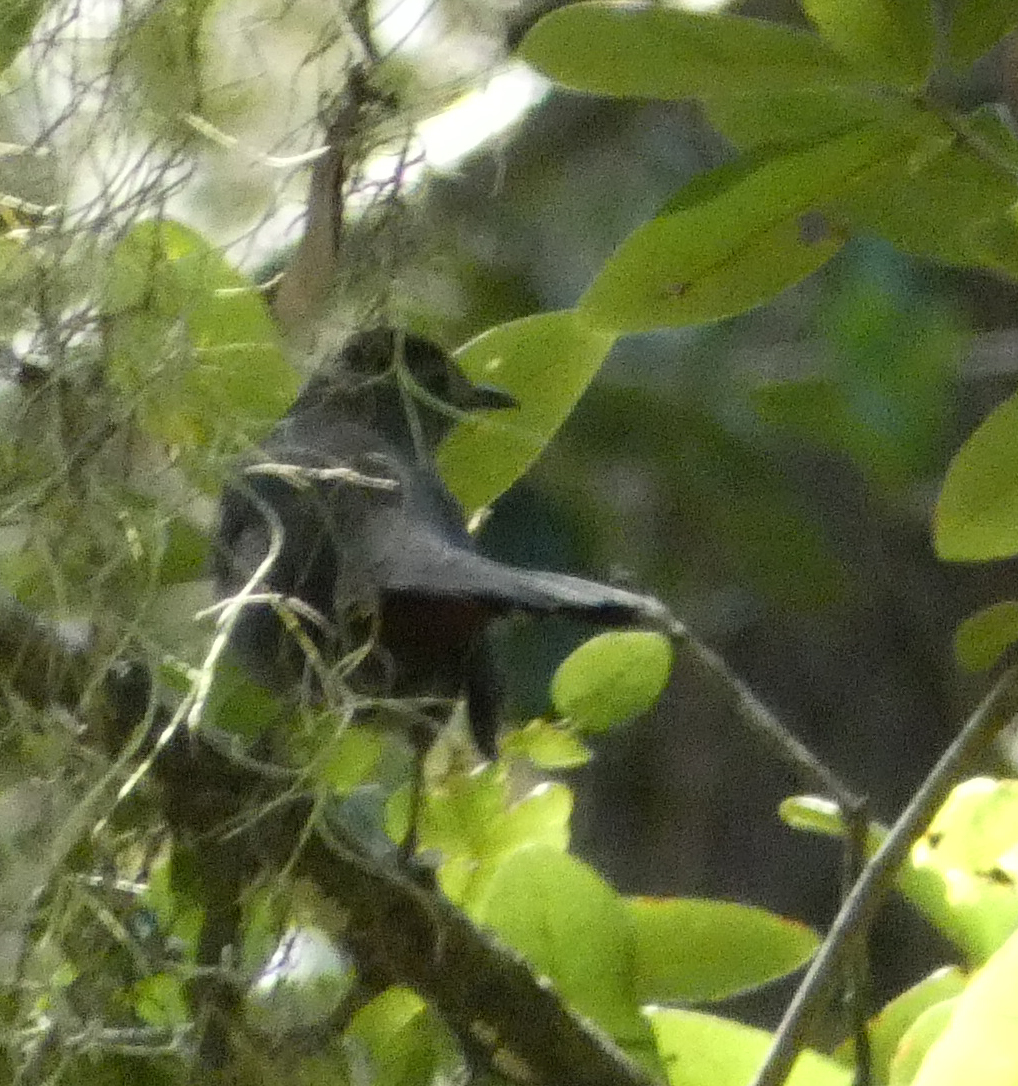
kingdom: Animalia
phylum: Chordata
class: Aves
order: Passeriformes
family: Mimidae
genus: Dumetella
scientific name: Dumetella carolinensis
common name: Gray catbird
